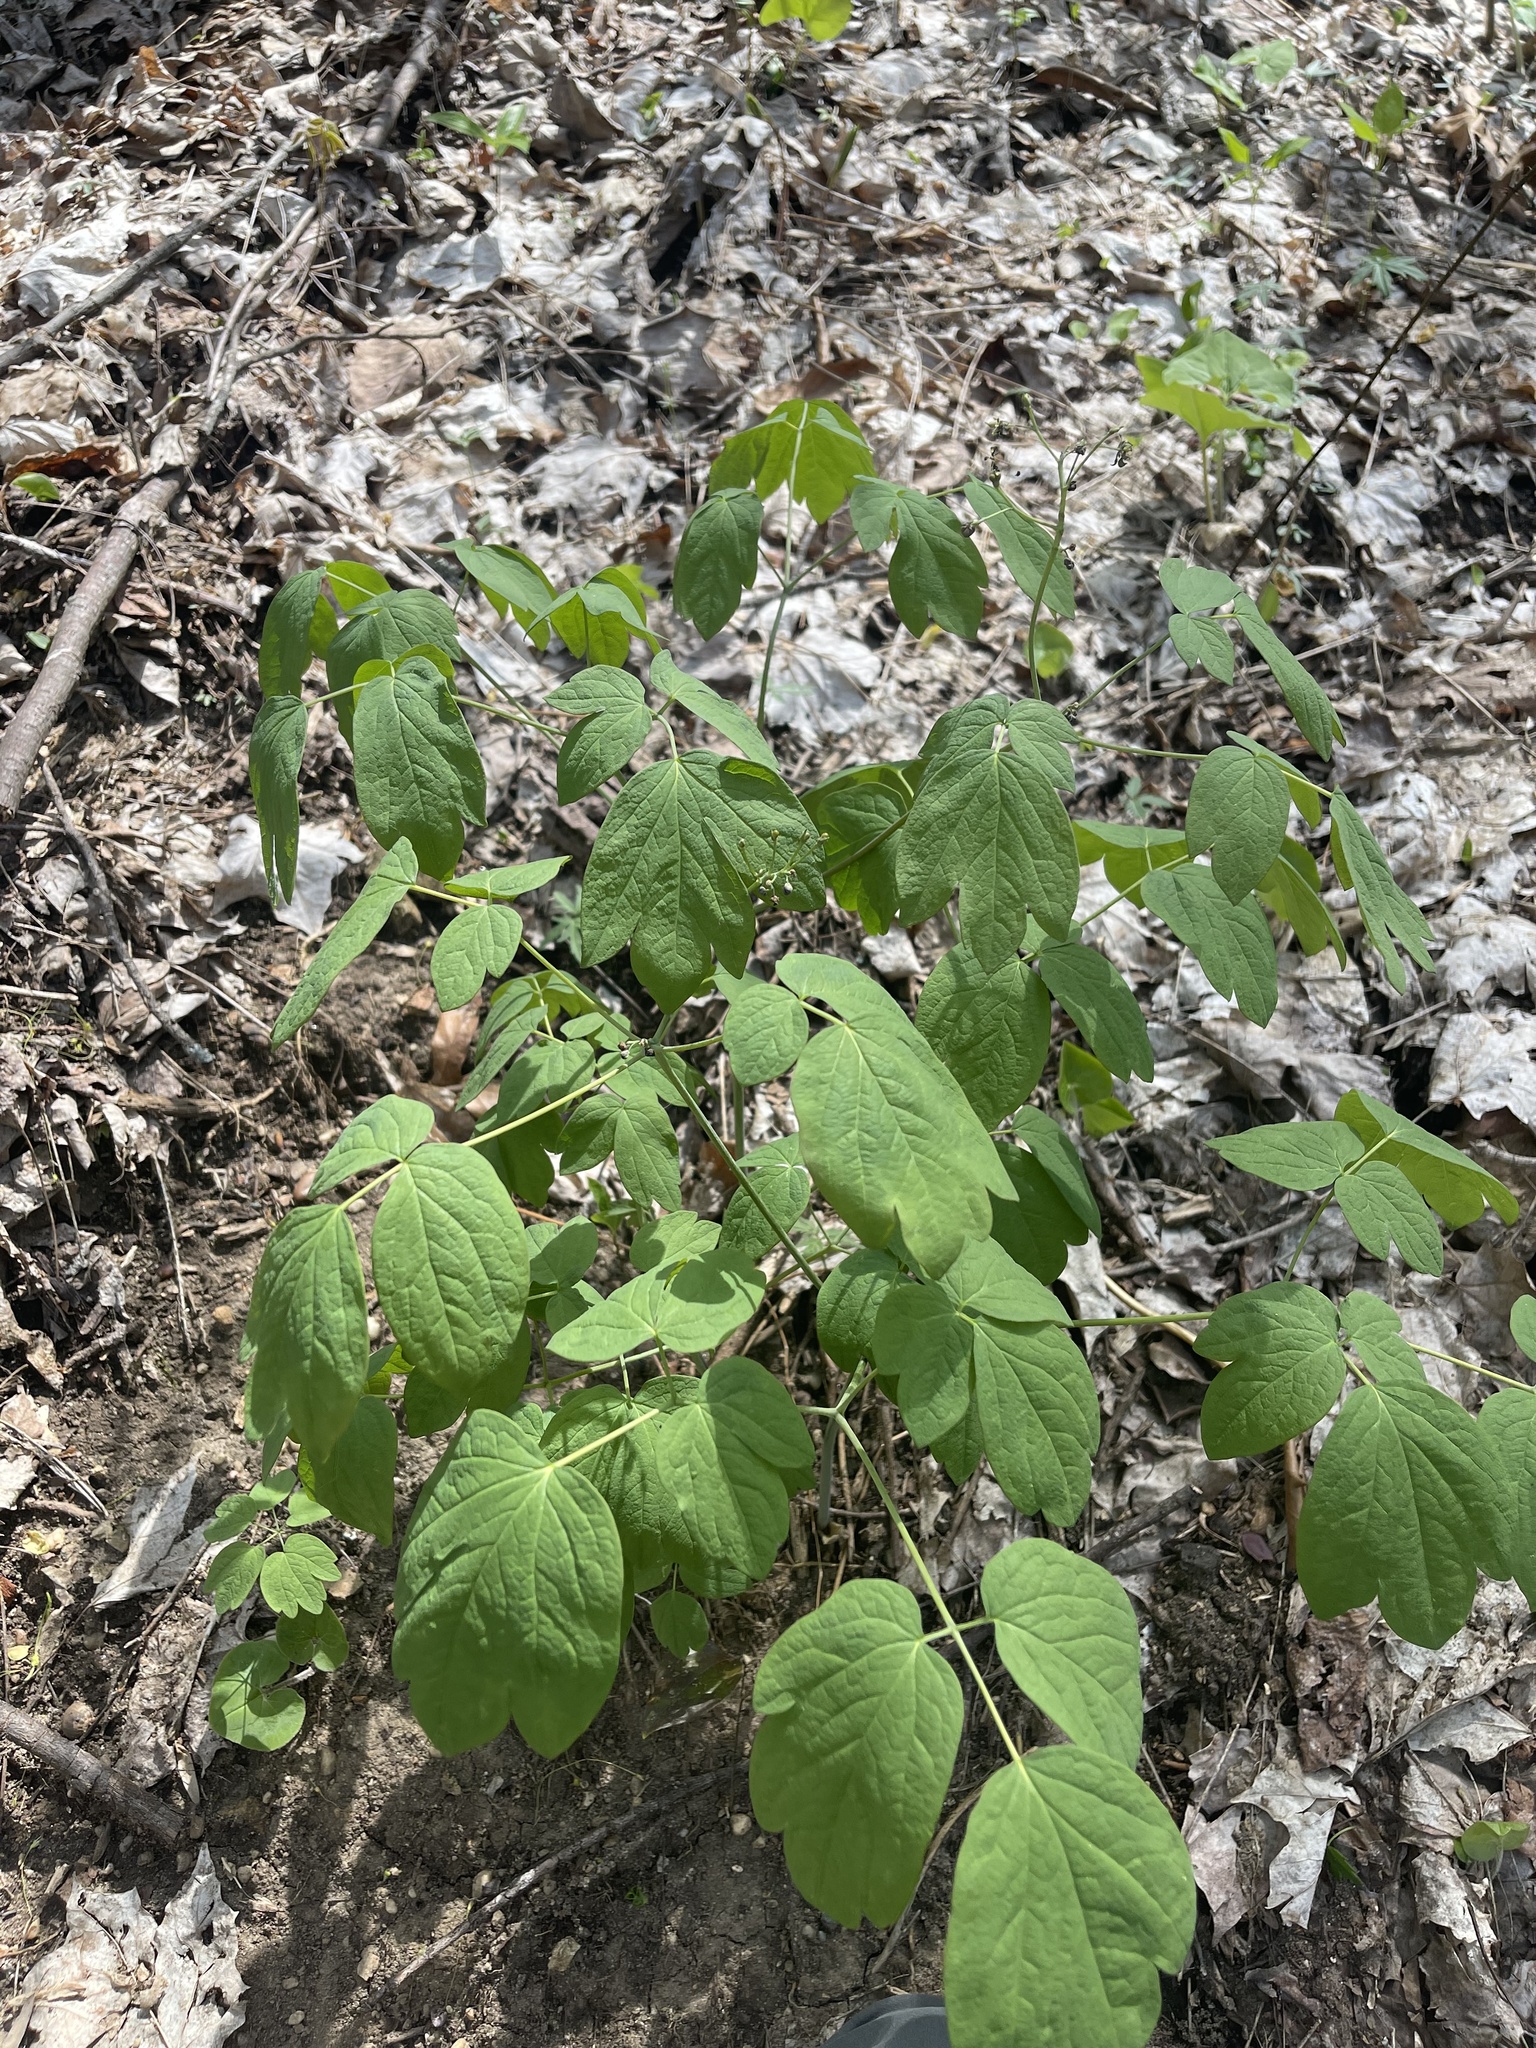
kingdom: Plantae
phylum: Tracheophyta
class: Magnoliopsida
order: Ranunculales
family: Berberidaceae
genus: Caulophyllum
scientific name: Caulophyllum thalictroides
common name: Blue cohosh
